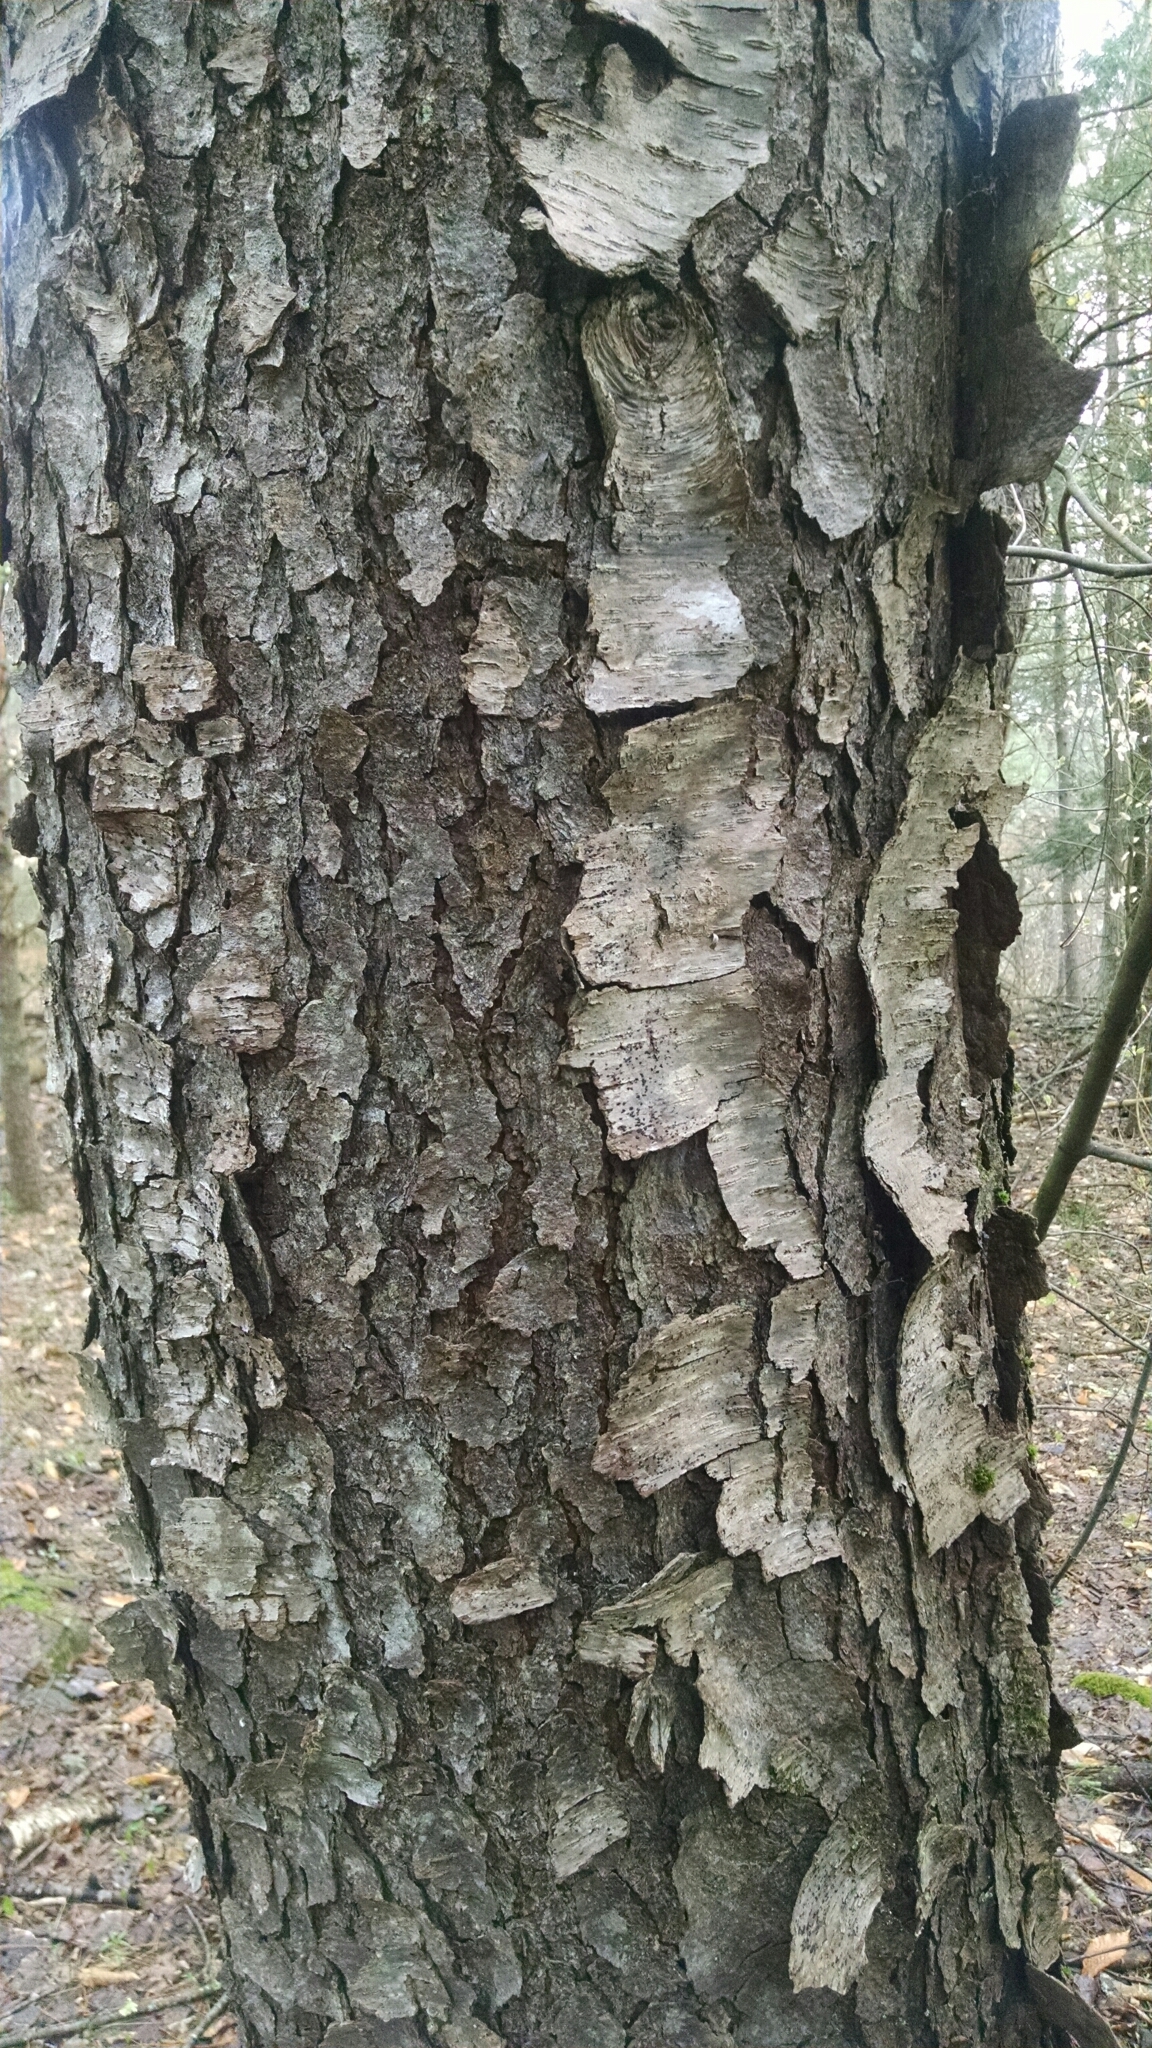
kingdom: Plantae
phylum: Tracheophyta
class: Magnoliopsida
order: Rosales
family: Rosaceae
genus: Prunus
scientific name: Prunus serotina
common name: Black cherry
